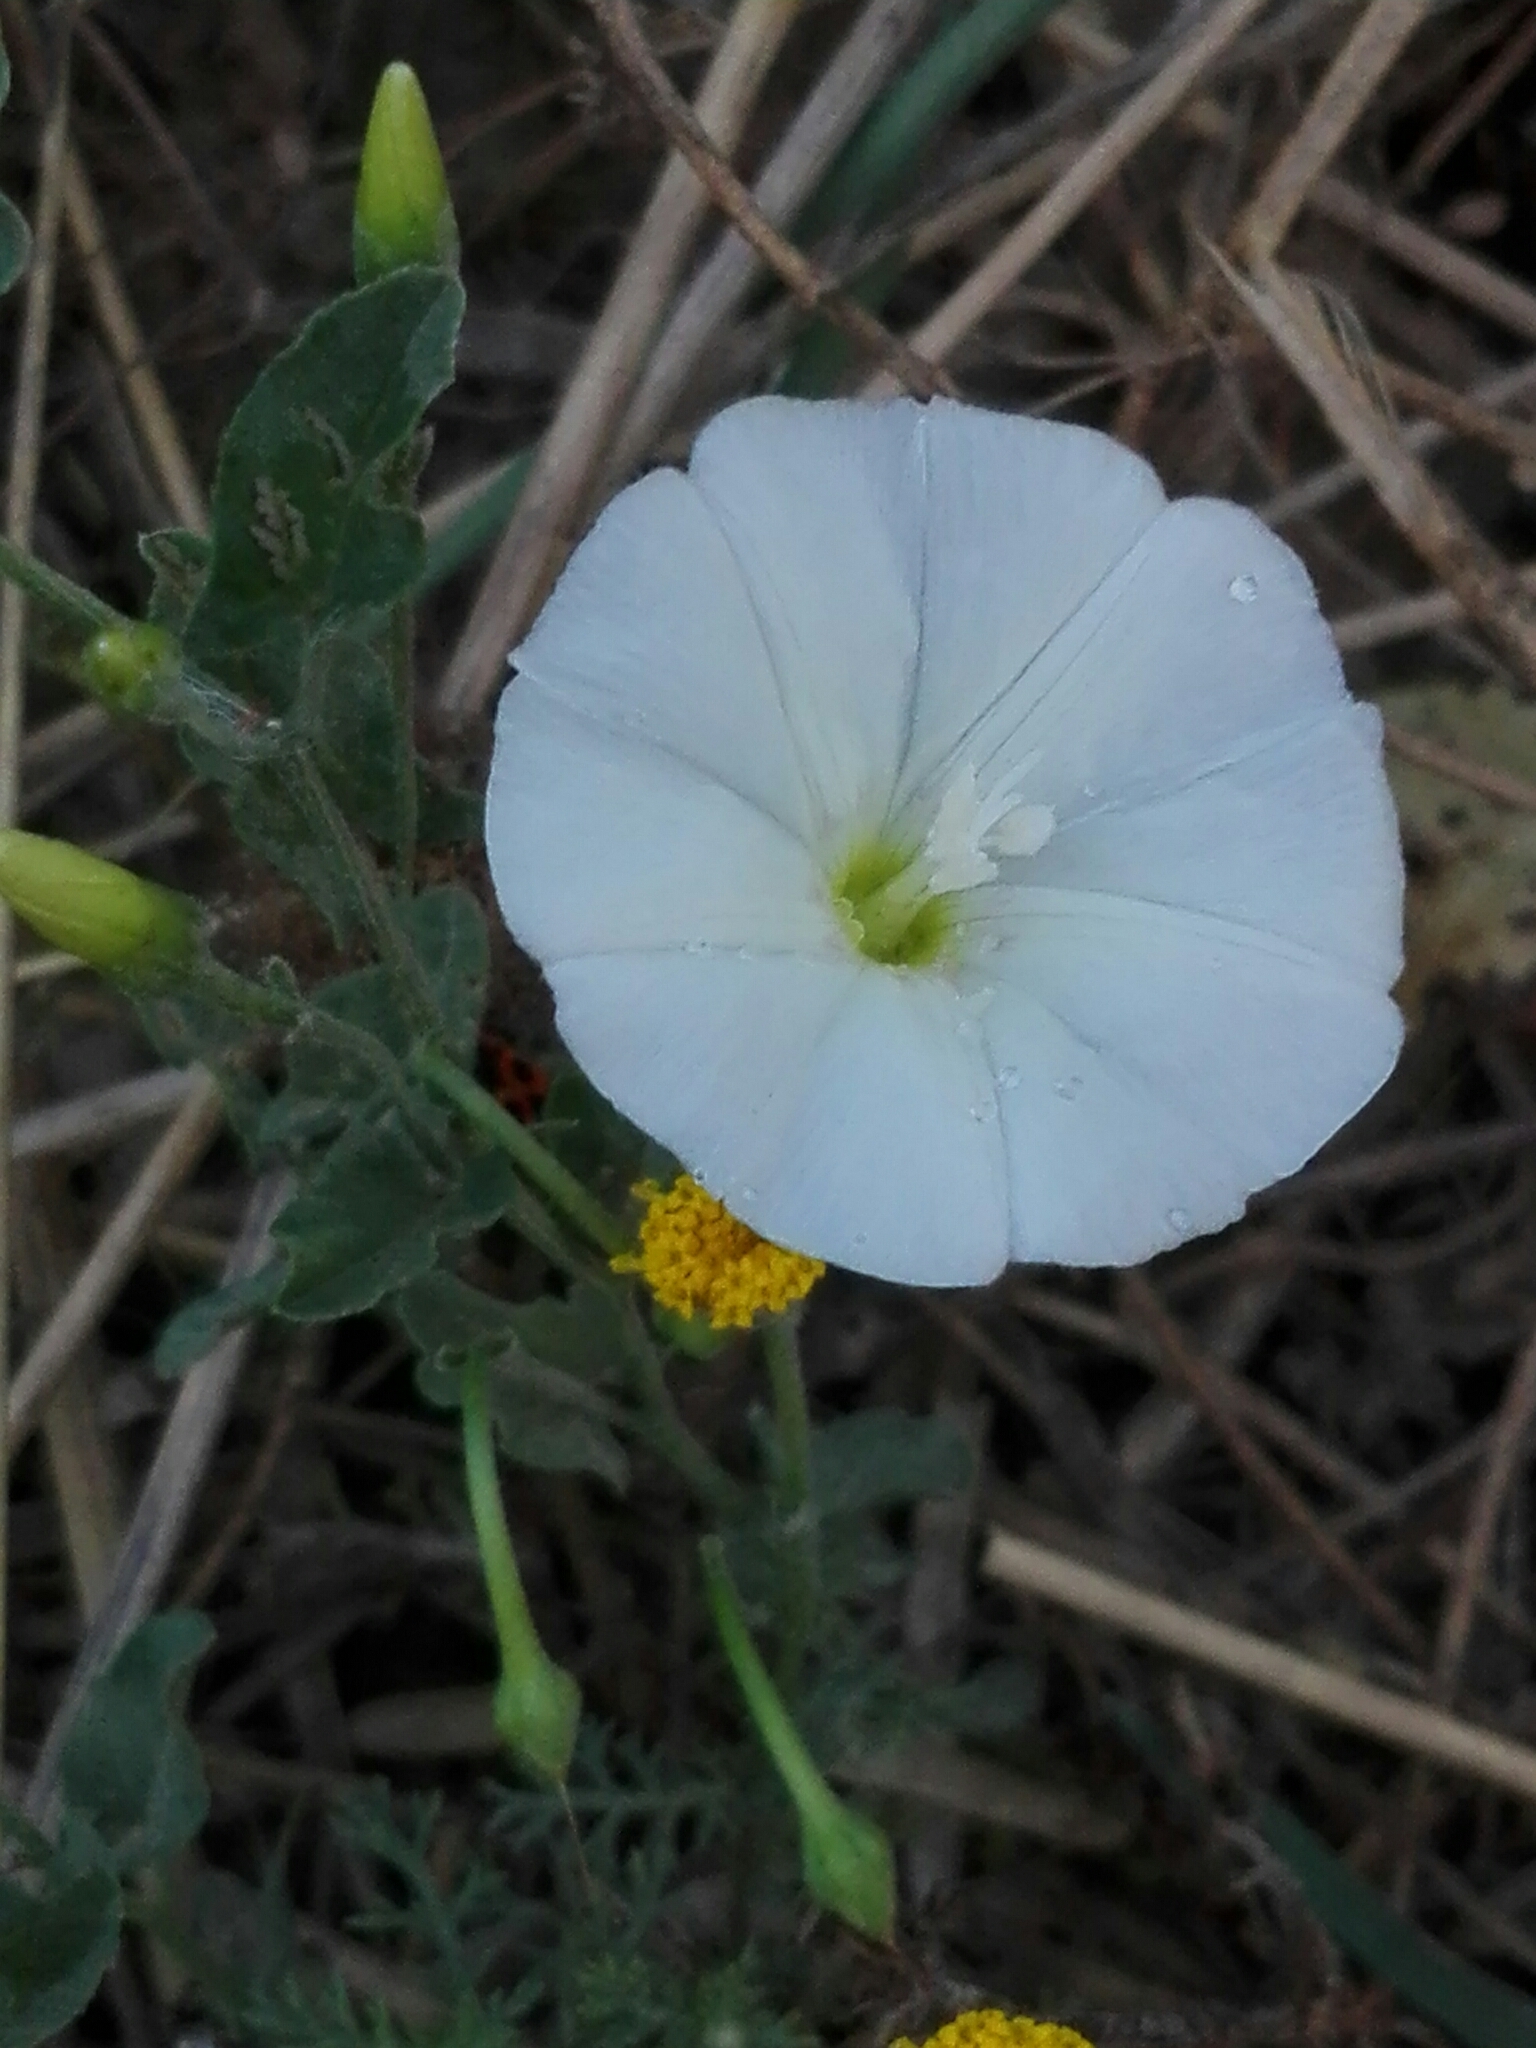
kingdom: Plantae
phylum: Tracheophyta
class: Magnoliopsida
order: Solanales
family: Convolvulaceae
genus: Convolvulus
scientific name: Convolvulus arvensis
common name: Field bindweed
